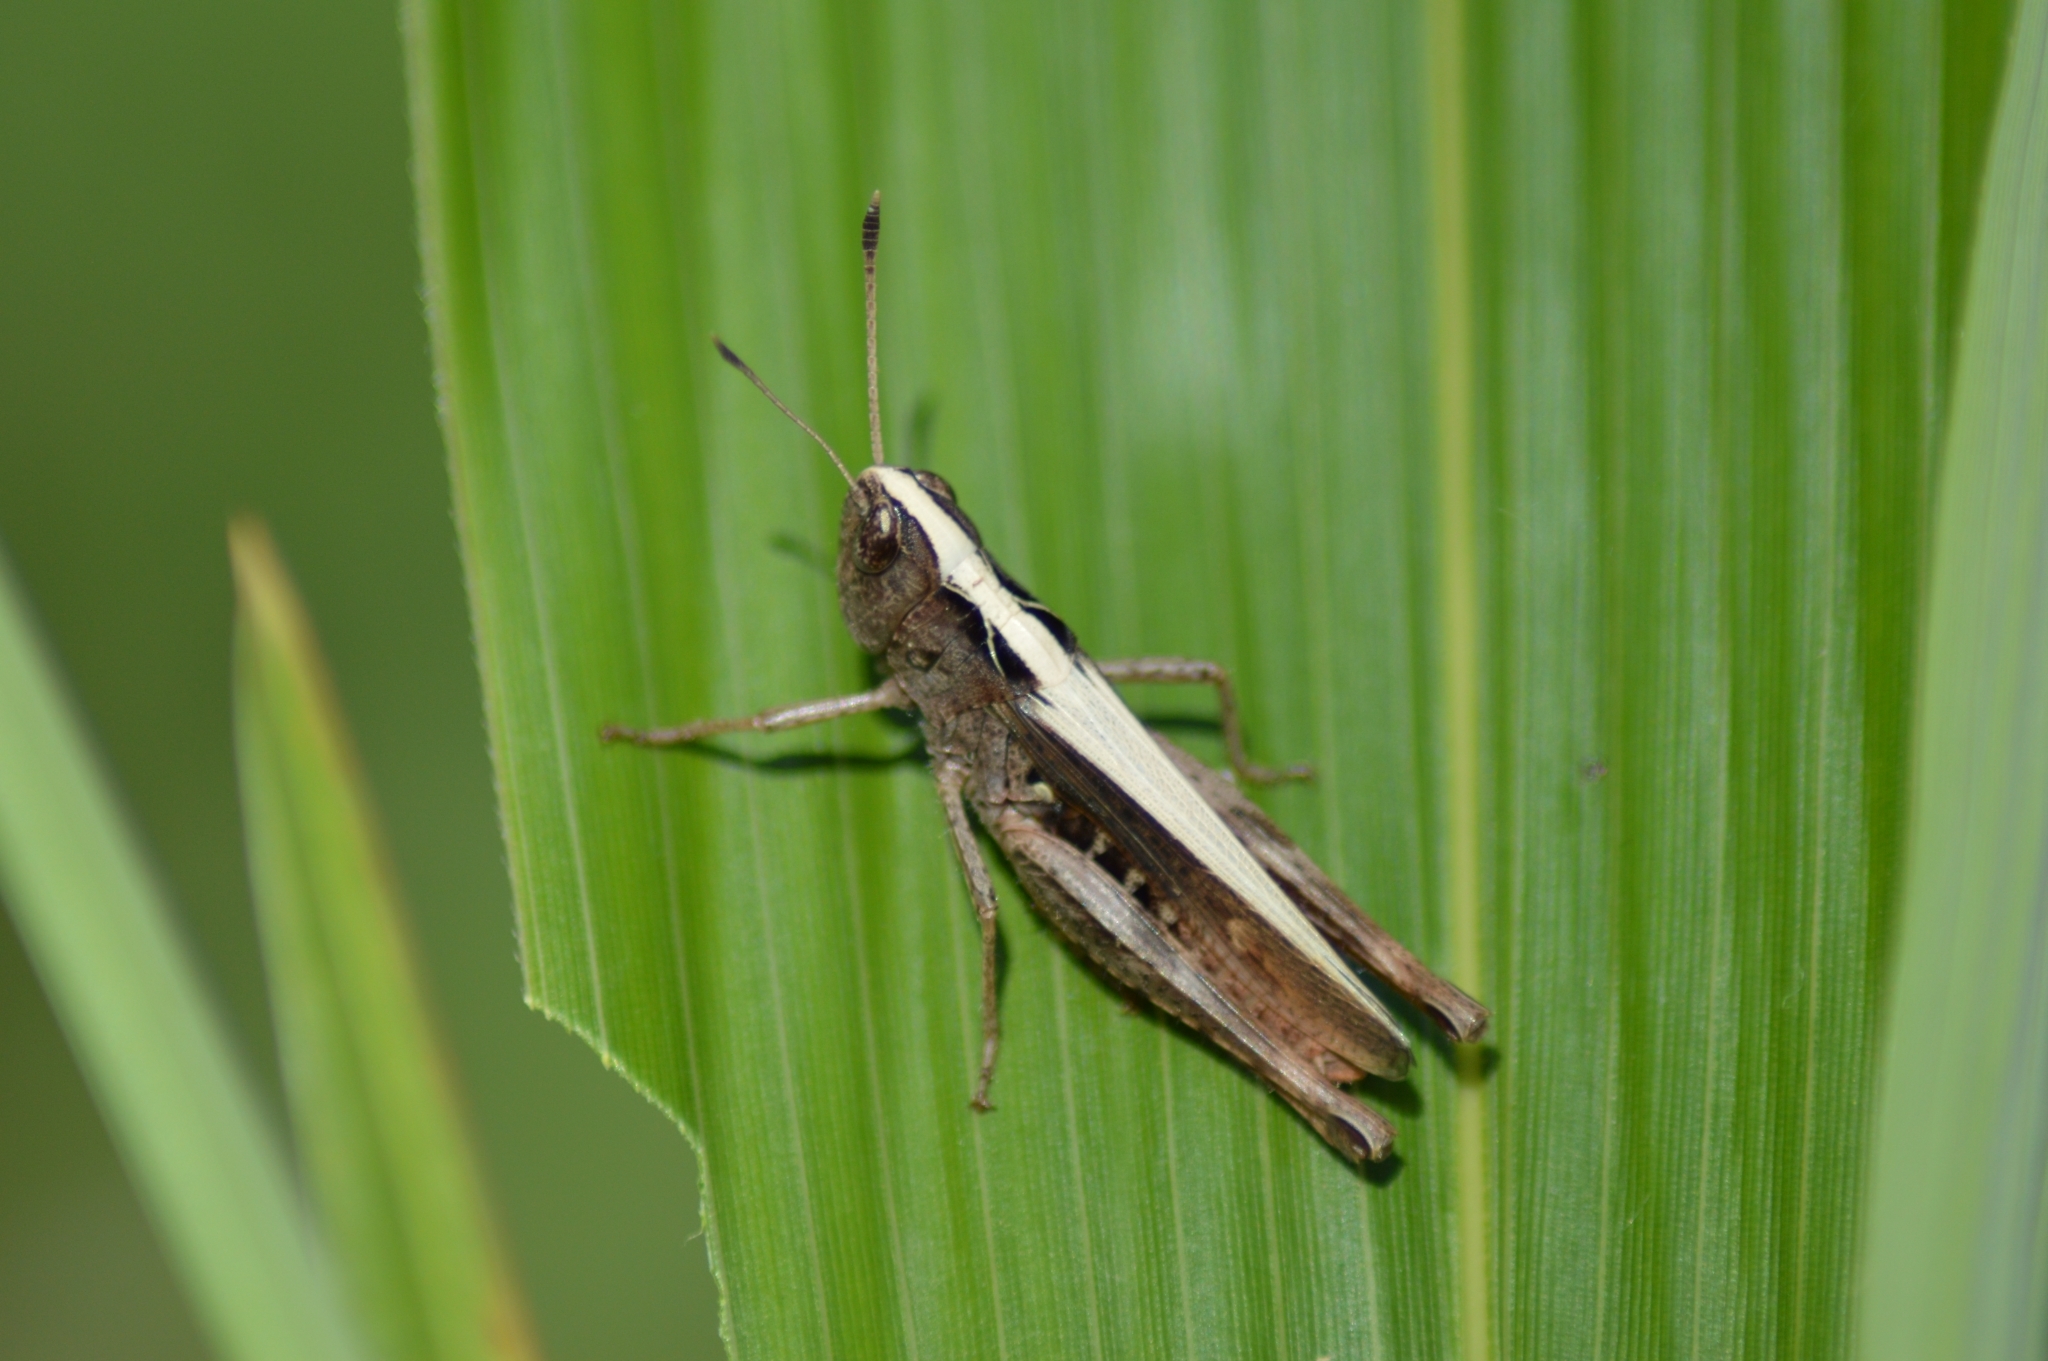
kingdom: Animalia
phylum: Arthropoda
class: Insecta
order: Orthoptera
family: Acrididae
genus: Gomphocerippus
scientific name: Gomphocerippus rufus
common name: Rufous grasshopper
